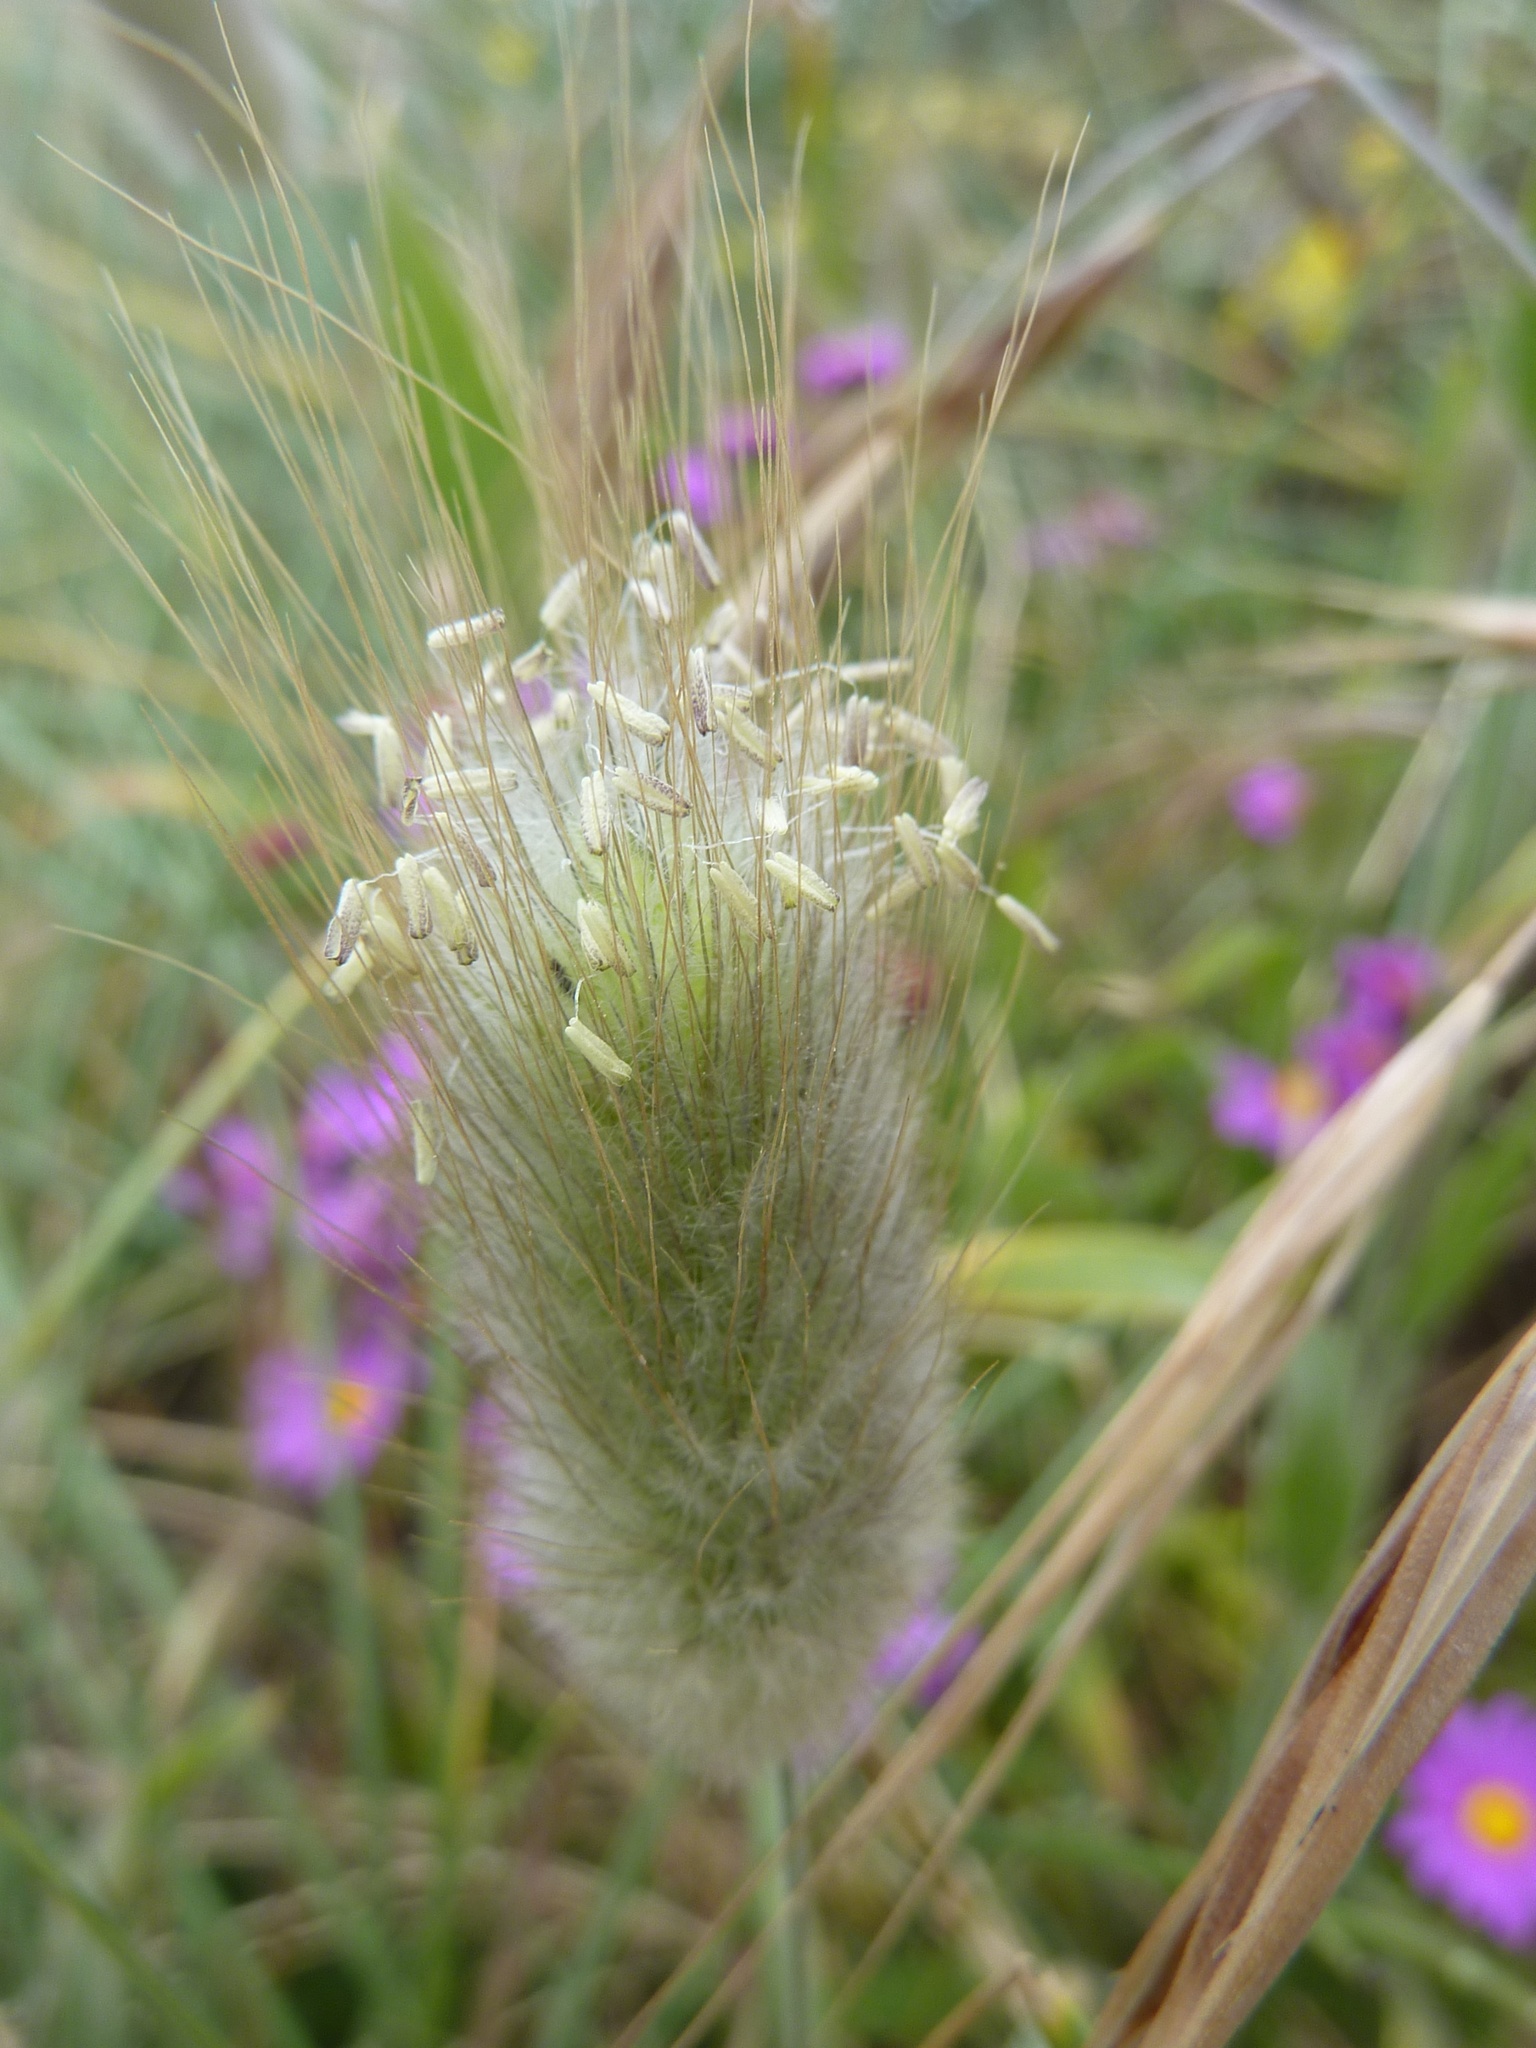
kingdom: Plantae
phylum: Tracheophyta
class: Liliopsida
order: Poales
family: Poaceae
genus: Lagurus
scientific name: Lagurus ovatus
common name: Hare's-tail
